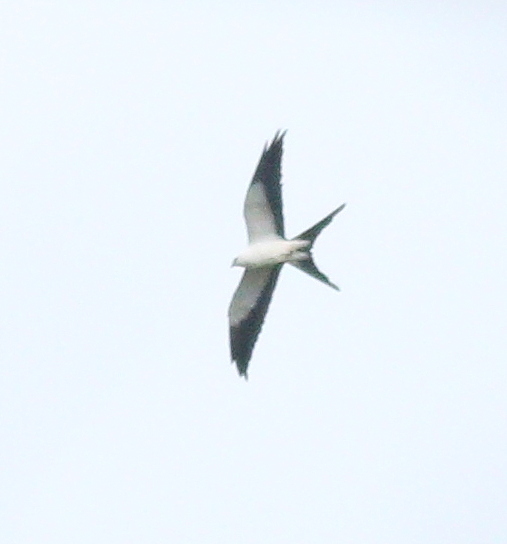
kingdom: Animalia
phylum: Chordata
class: Aves
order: Accipitriformes
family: Accipitridae
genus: Elanoides
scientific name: Elanoides forficatus
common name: Swallow-tailed kite
